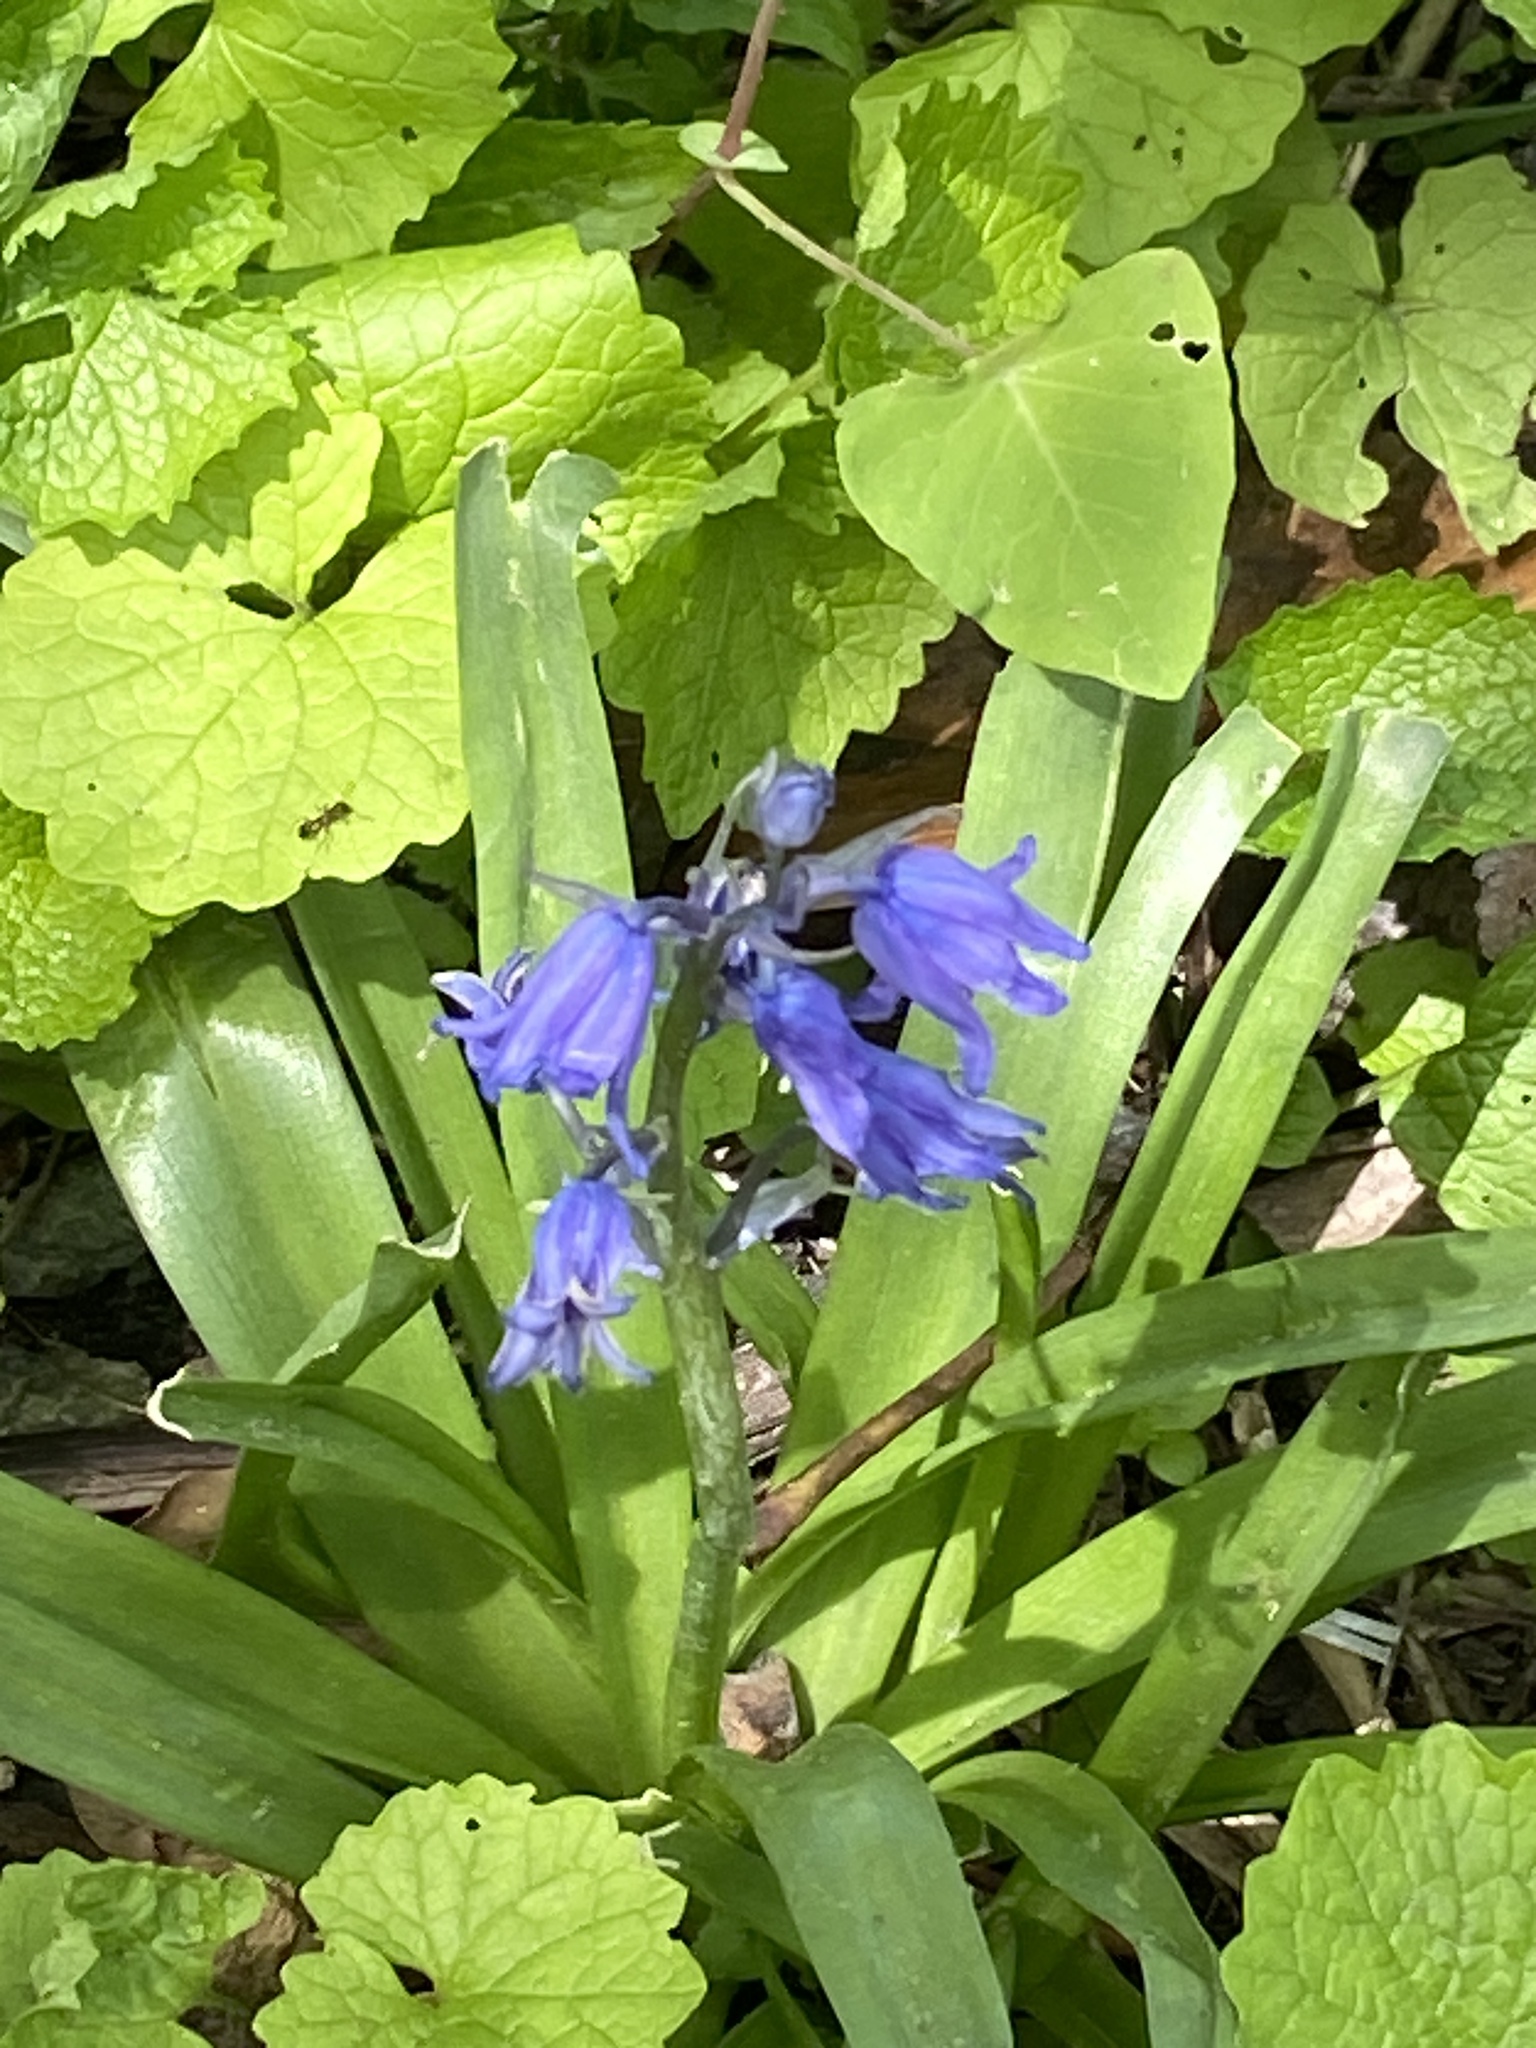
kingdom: Plantae
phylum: Tracheophyta
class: Liliopsida
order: Asparagales
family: Asparagaceae
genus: Hyacinthoides
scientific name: Hyacinthoides hispanica
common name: Spanish bluebell
